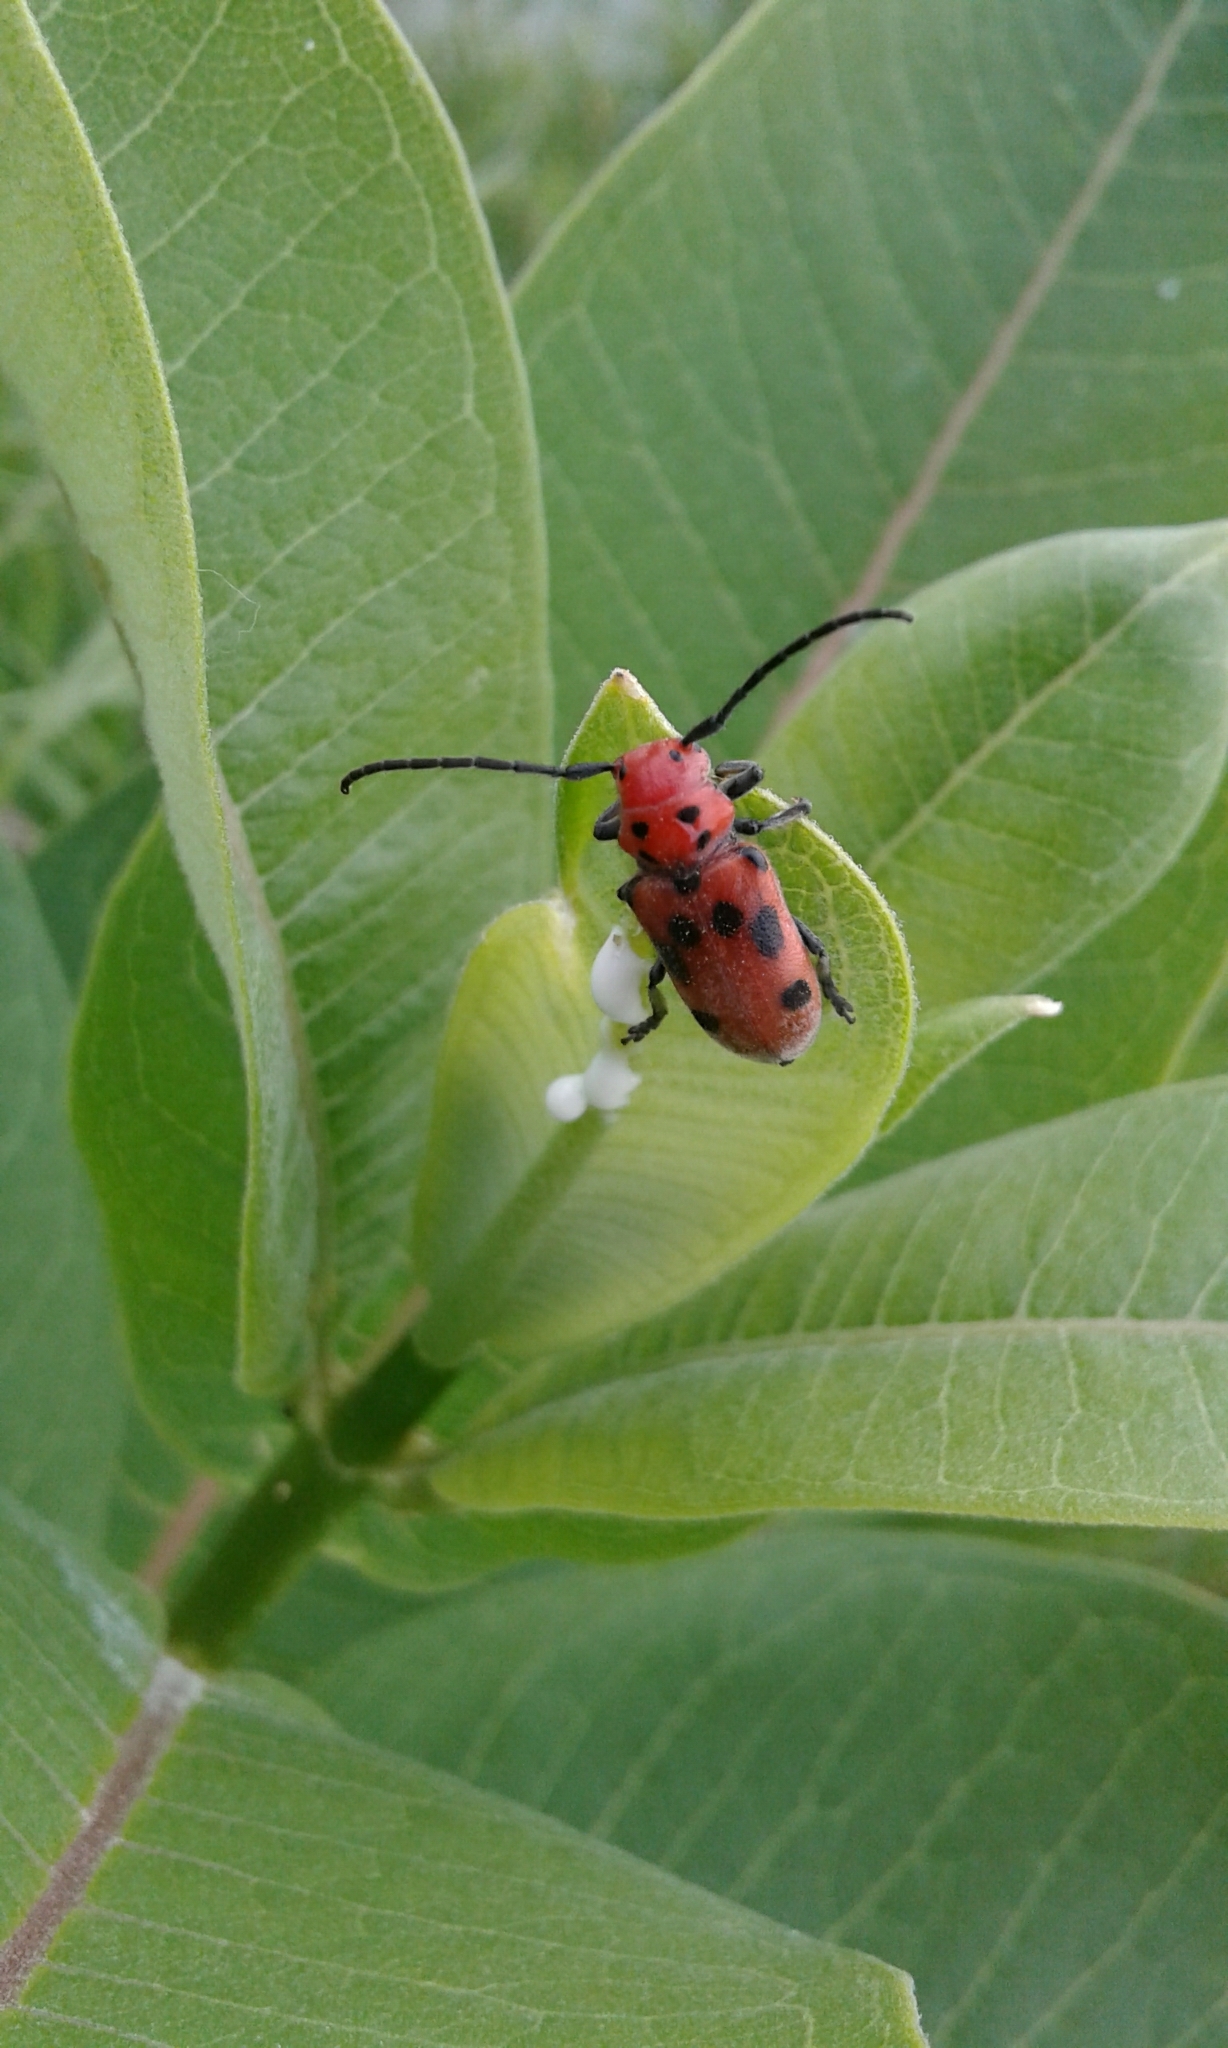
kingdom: Animalia
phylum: Arthropoda
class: Insecta
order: Coleoptera
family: Cerambycidae
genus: Tetraopes
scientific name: Tetraopes tetrophthalmus
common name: Red milkweed beetle
